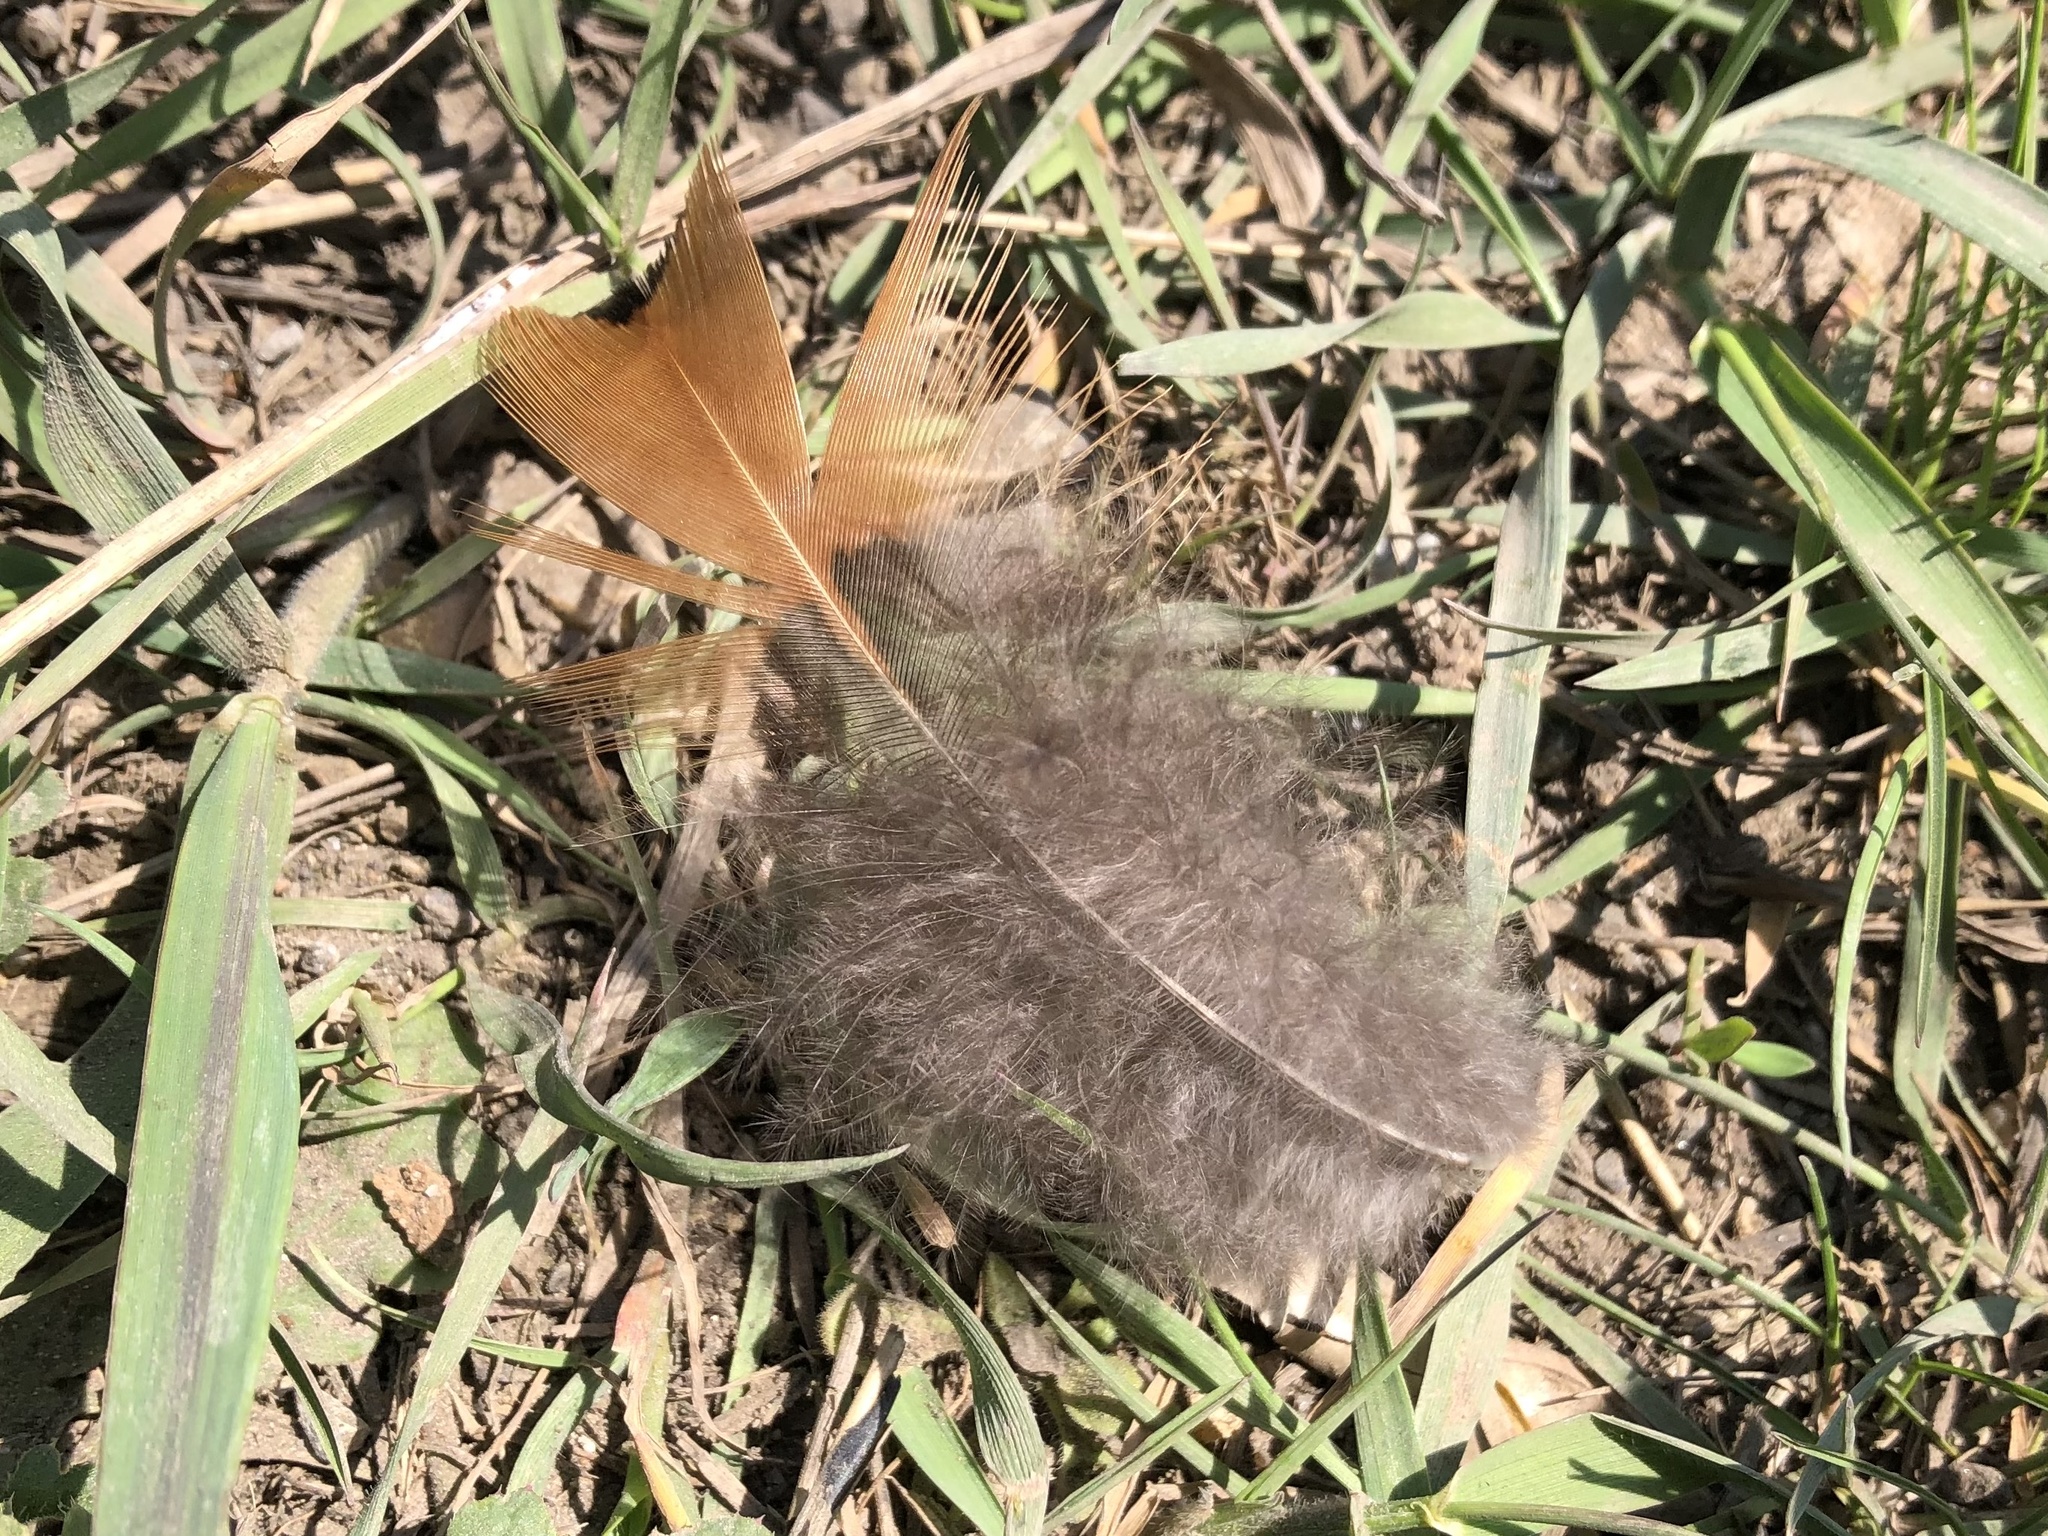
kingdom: Animalia
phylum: Chordata
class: Aves
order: Galliformes
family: Phasianidae
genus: Phasianus
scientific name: Phasianus colchicus
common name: Common pheasant
